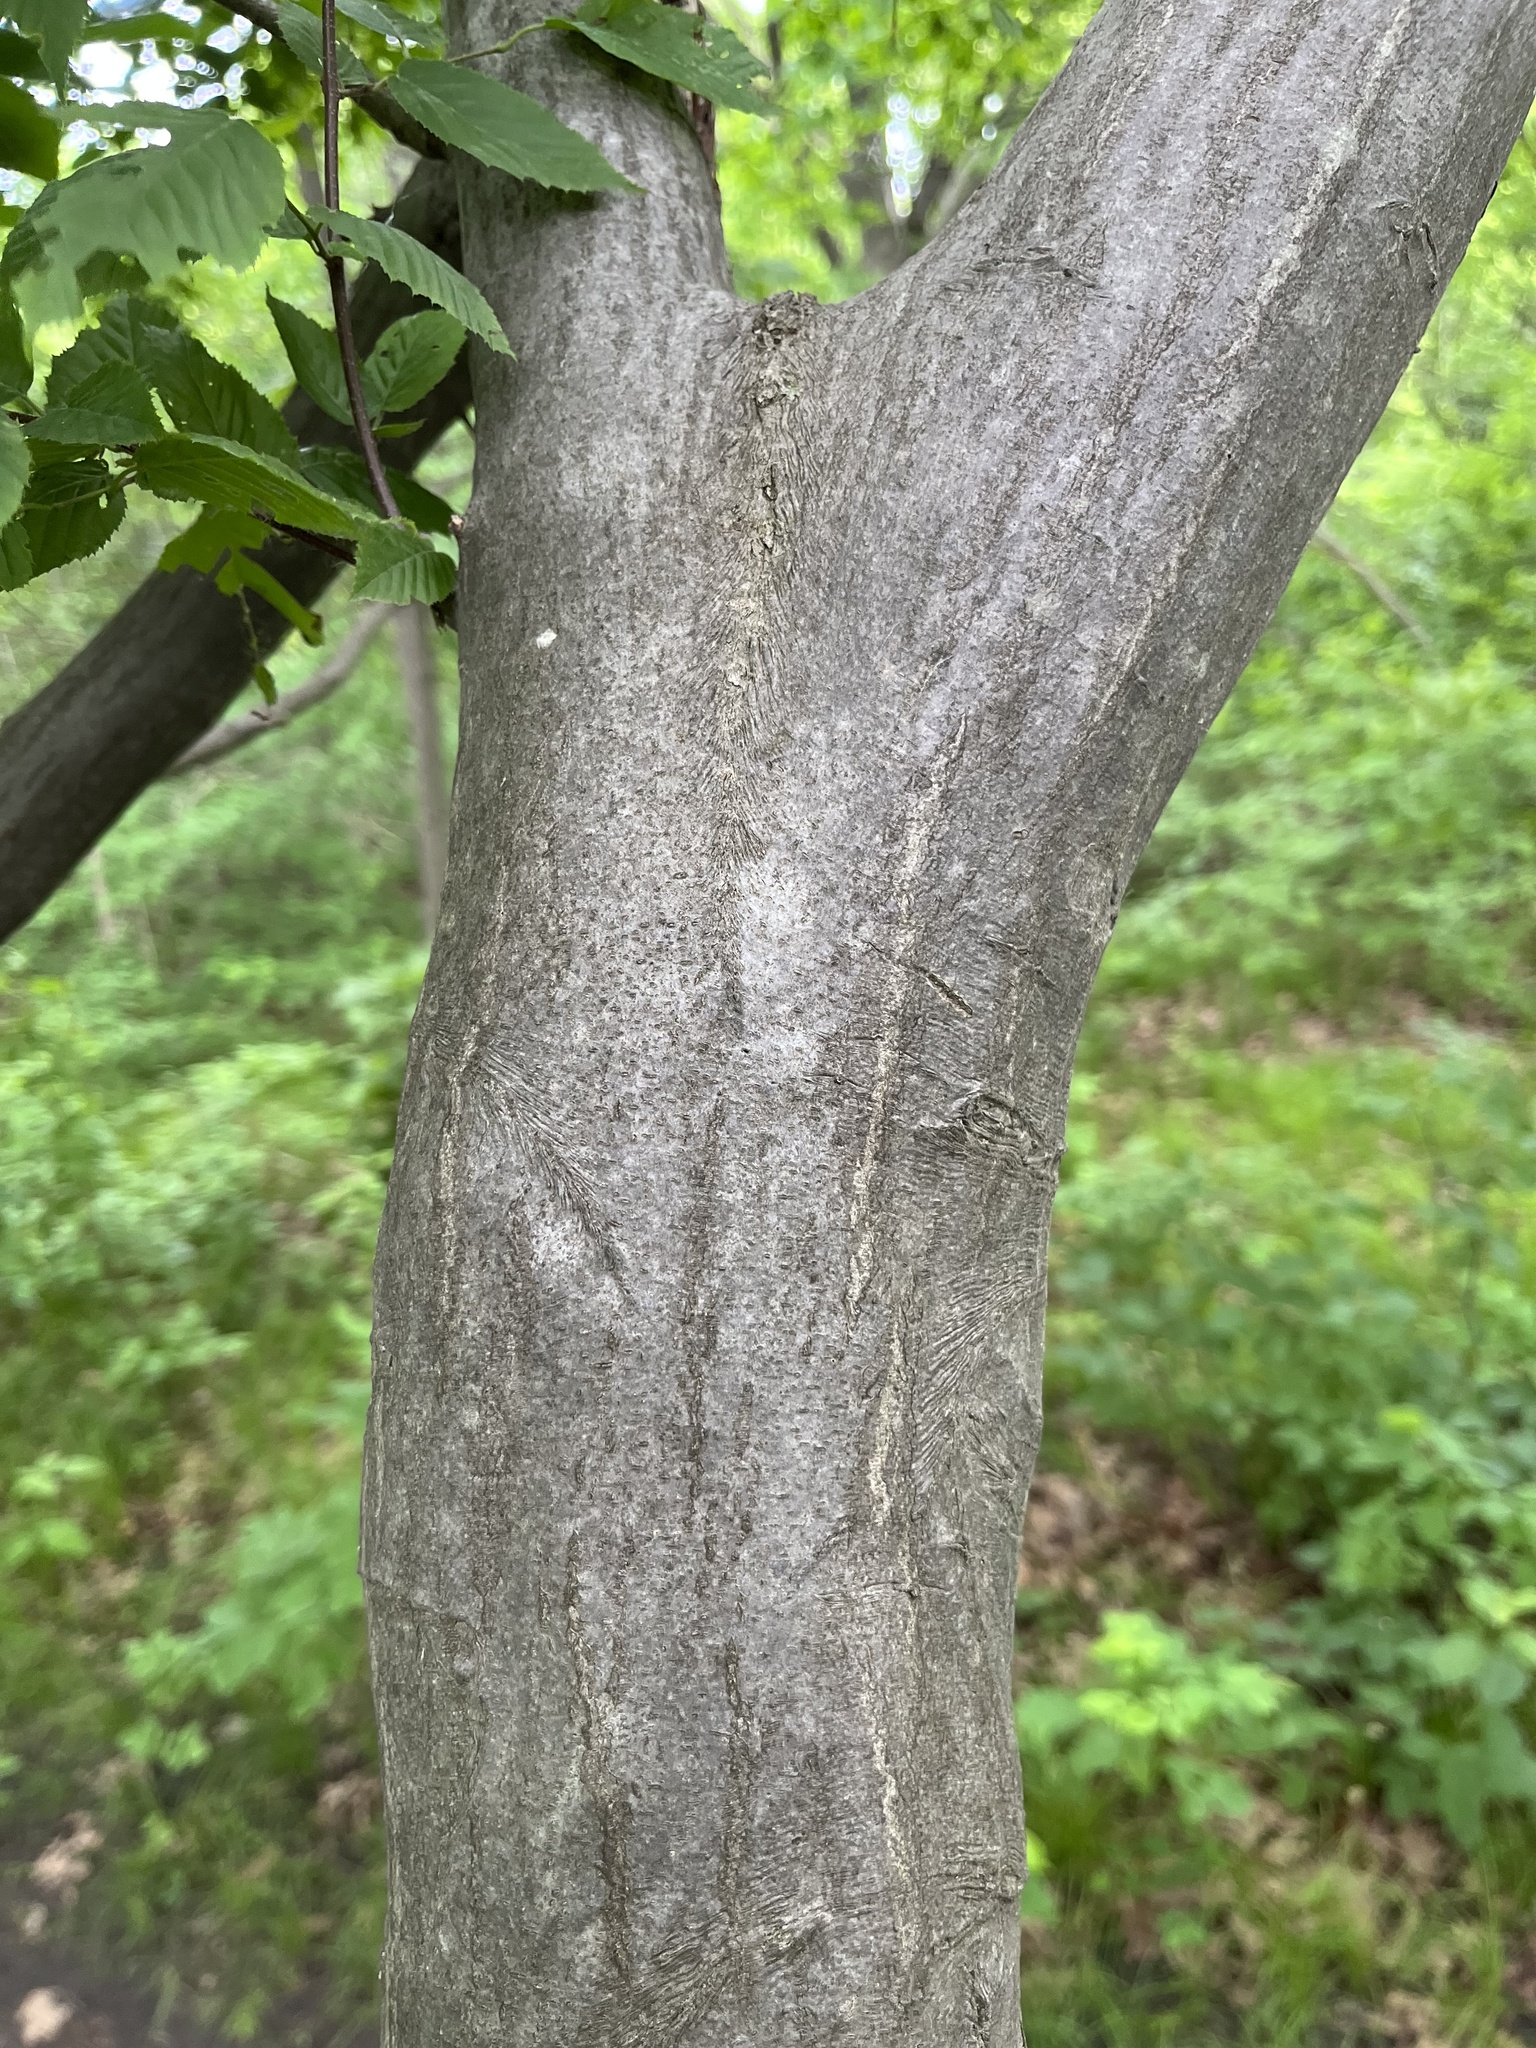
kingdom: Plantae
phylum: Tracheophyta
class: Magnoliopsida
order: Fagales
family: Betulaceae
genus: Carpinus
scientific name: Carpinus caroliniana
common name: American hornbeam
